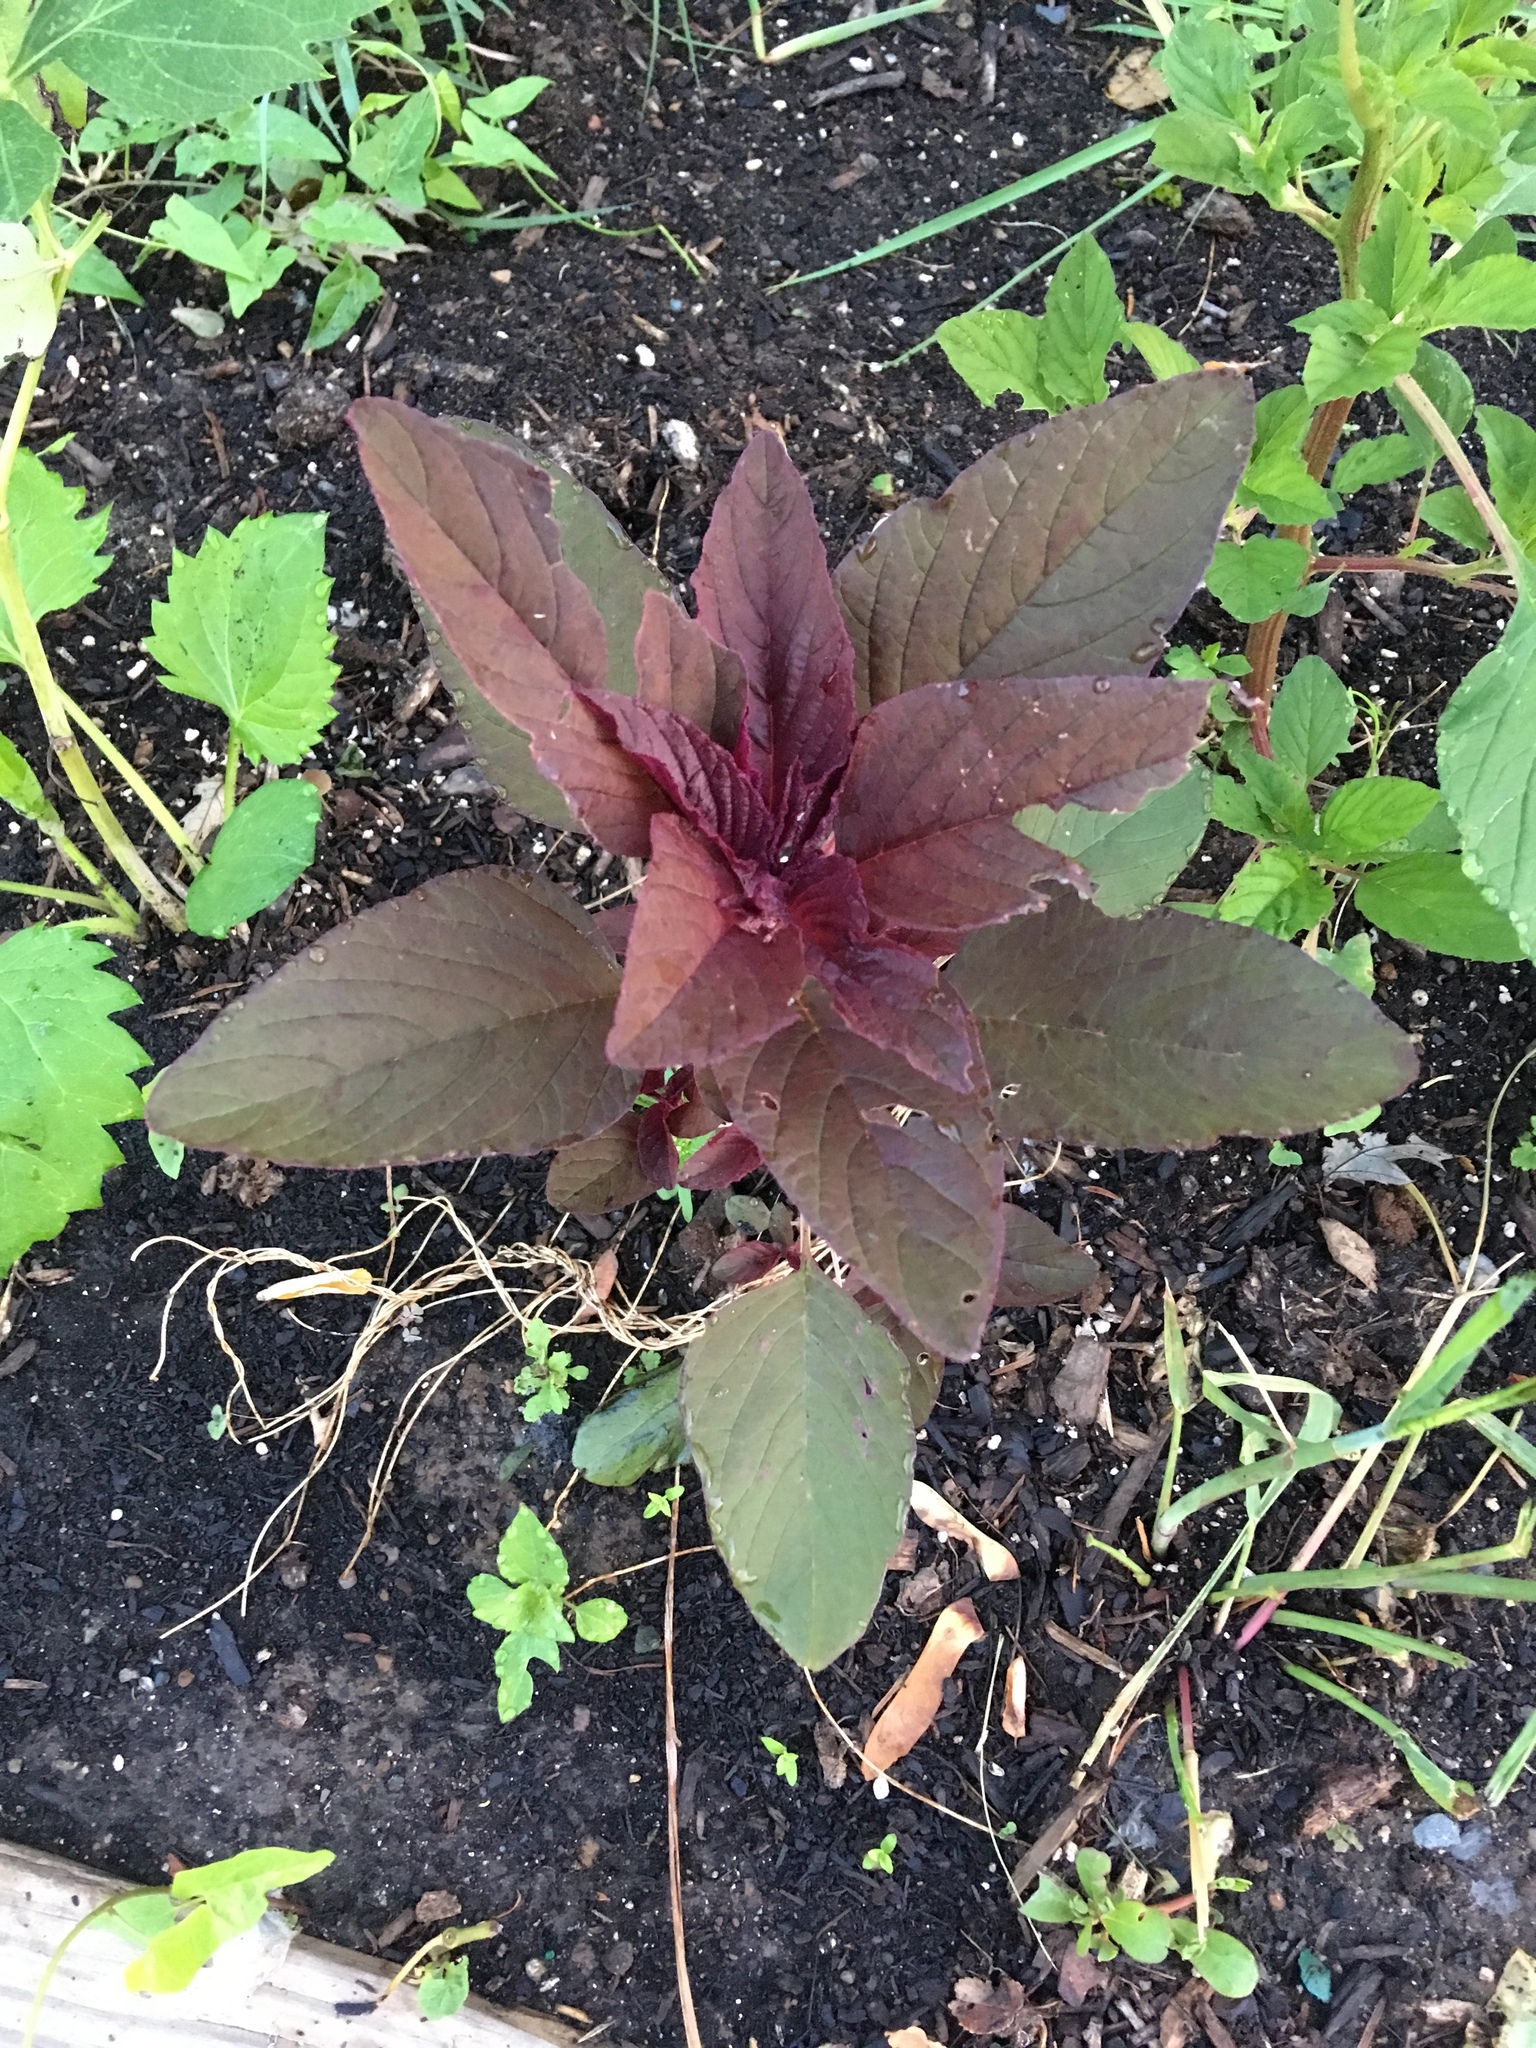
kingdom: Plantae
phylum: Tracheophyta
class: Magnoliopsida
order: Caryophyllales
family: Amaranthaceae
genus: Amaranthus
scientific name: Amaranthus cruentus
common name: Purple amaranth
